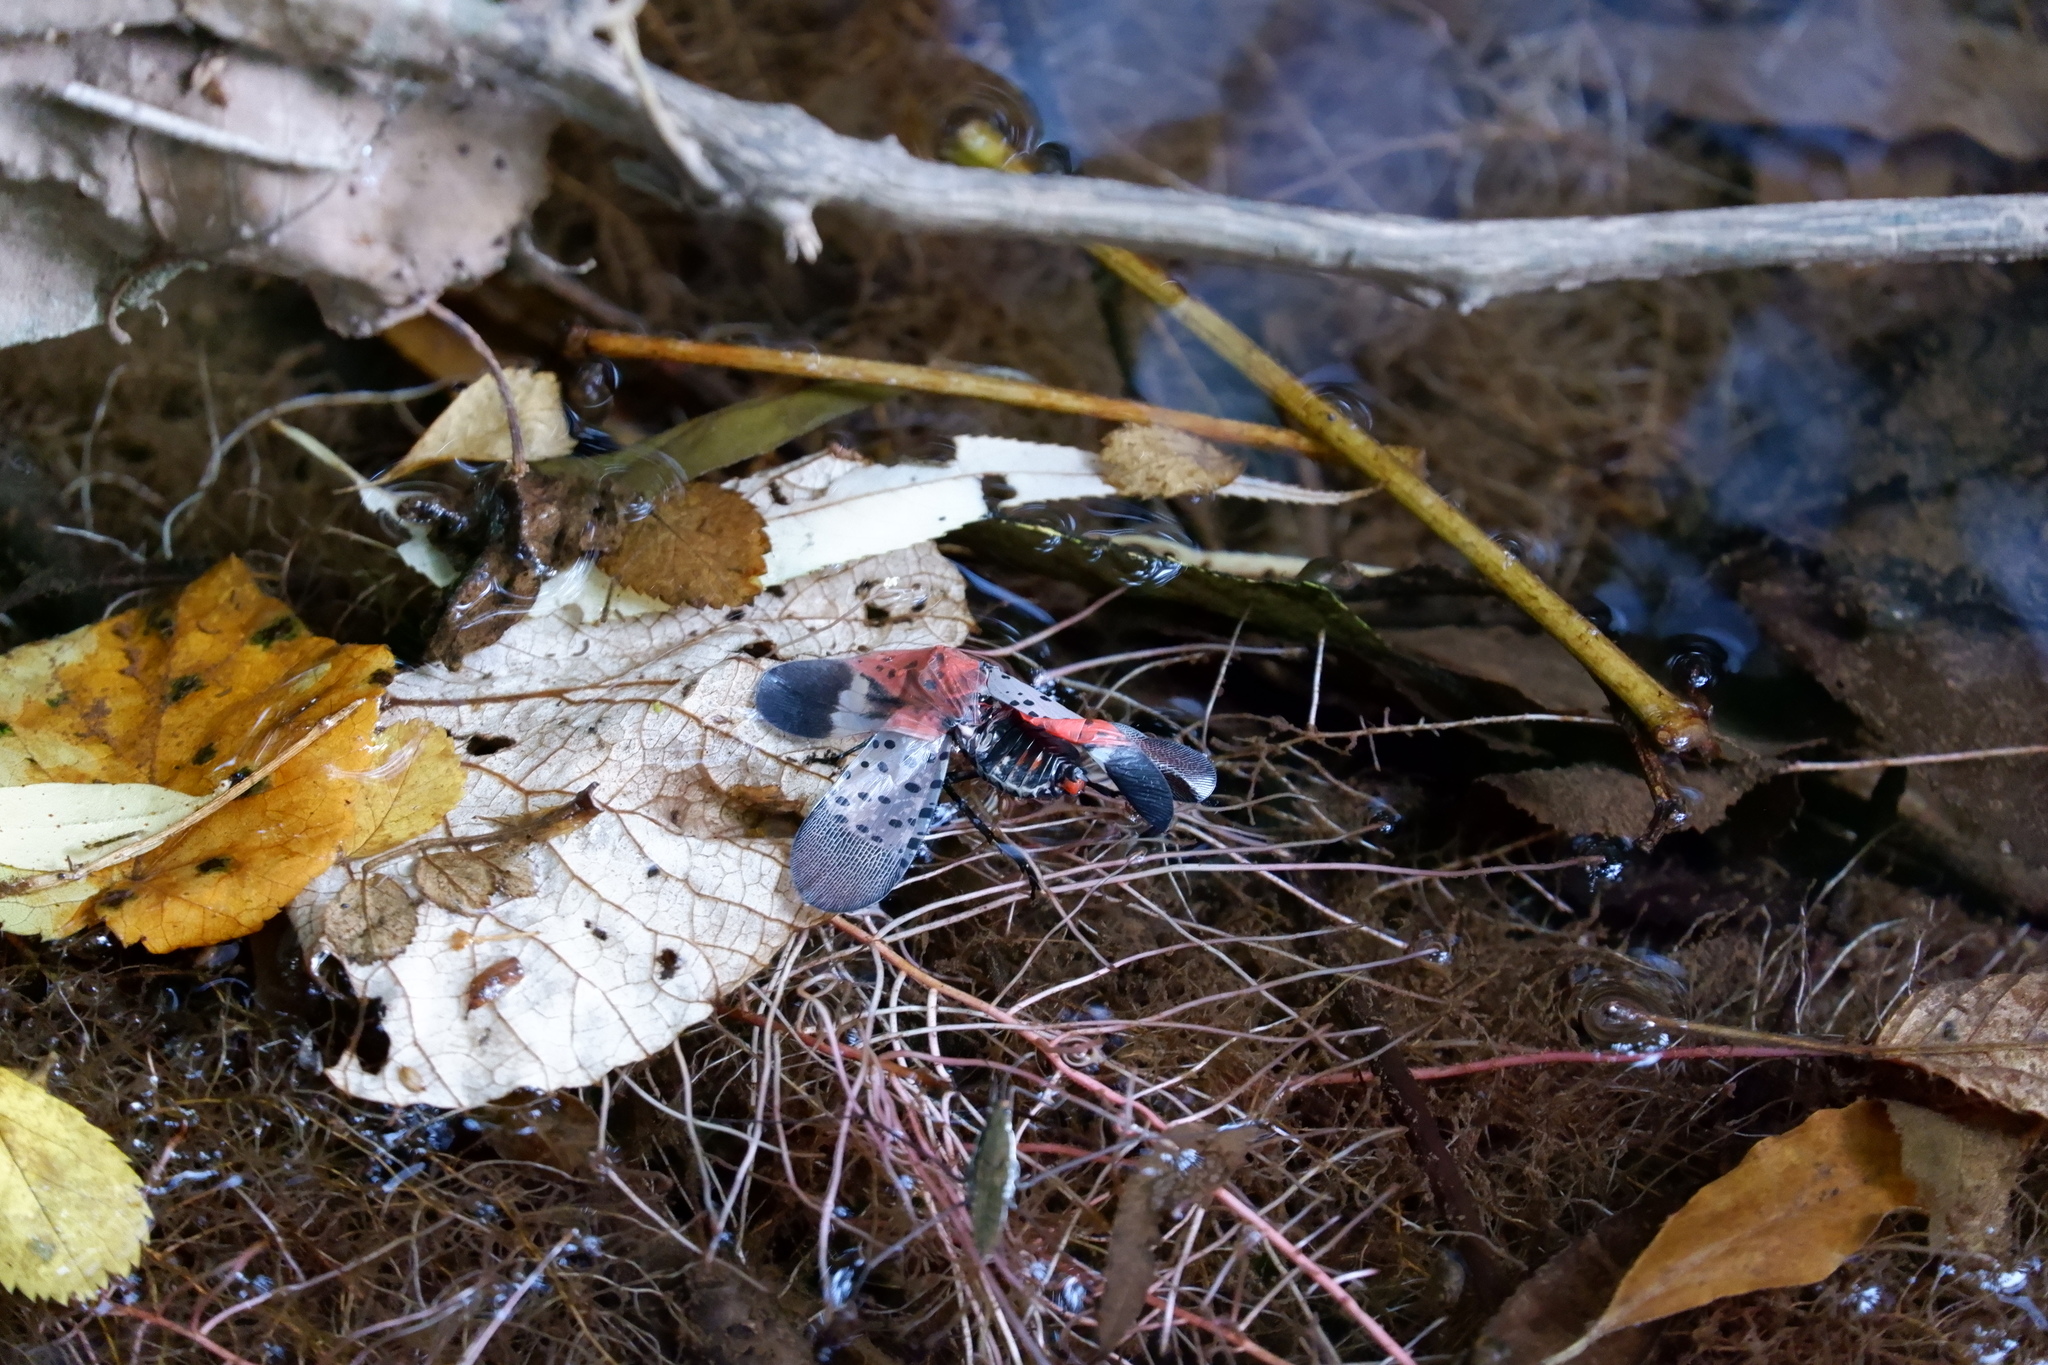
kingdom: Animalia
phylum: Arthropoda
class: Insecta
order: Hemiptera
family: Fulgoridae
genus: Lycorma
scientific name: Lycorma delicatula
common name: Spotted lanternfly
